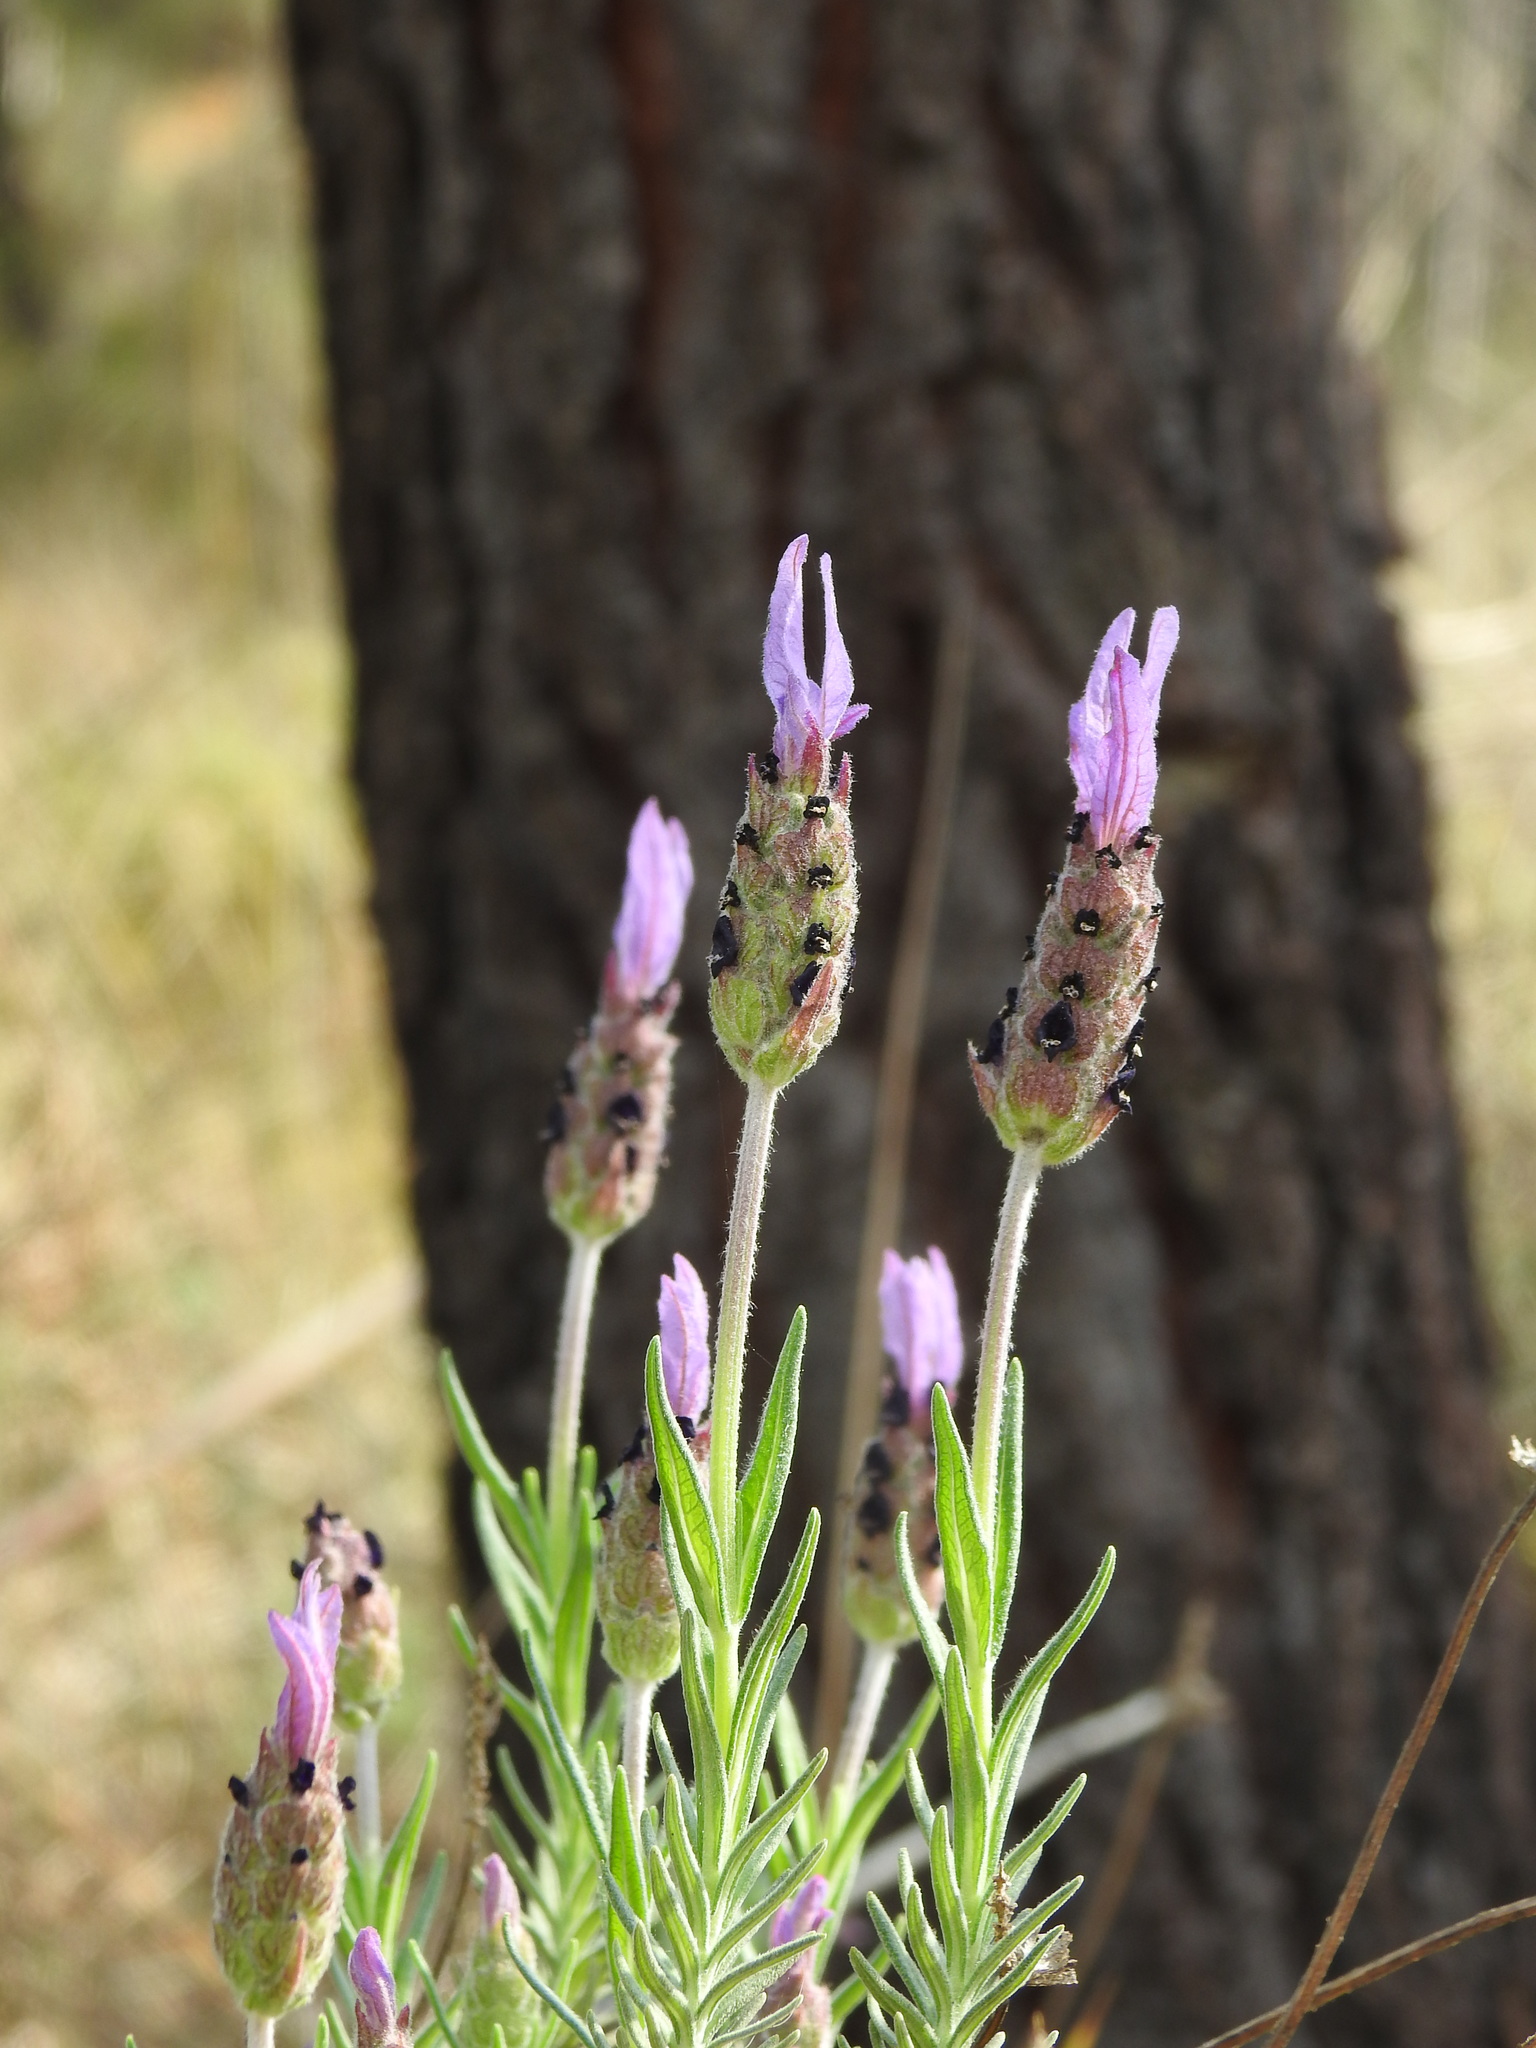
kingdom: Plantae
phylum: Tracheophyta
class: Magnoliopsida
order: Lamiales
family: Lamiaceae
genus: Lavandula
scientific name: Lavandula stoechas
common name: French lavender
